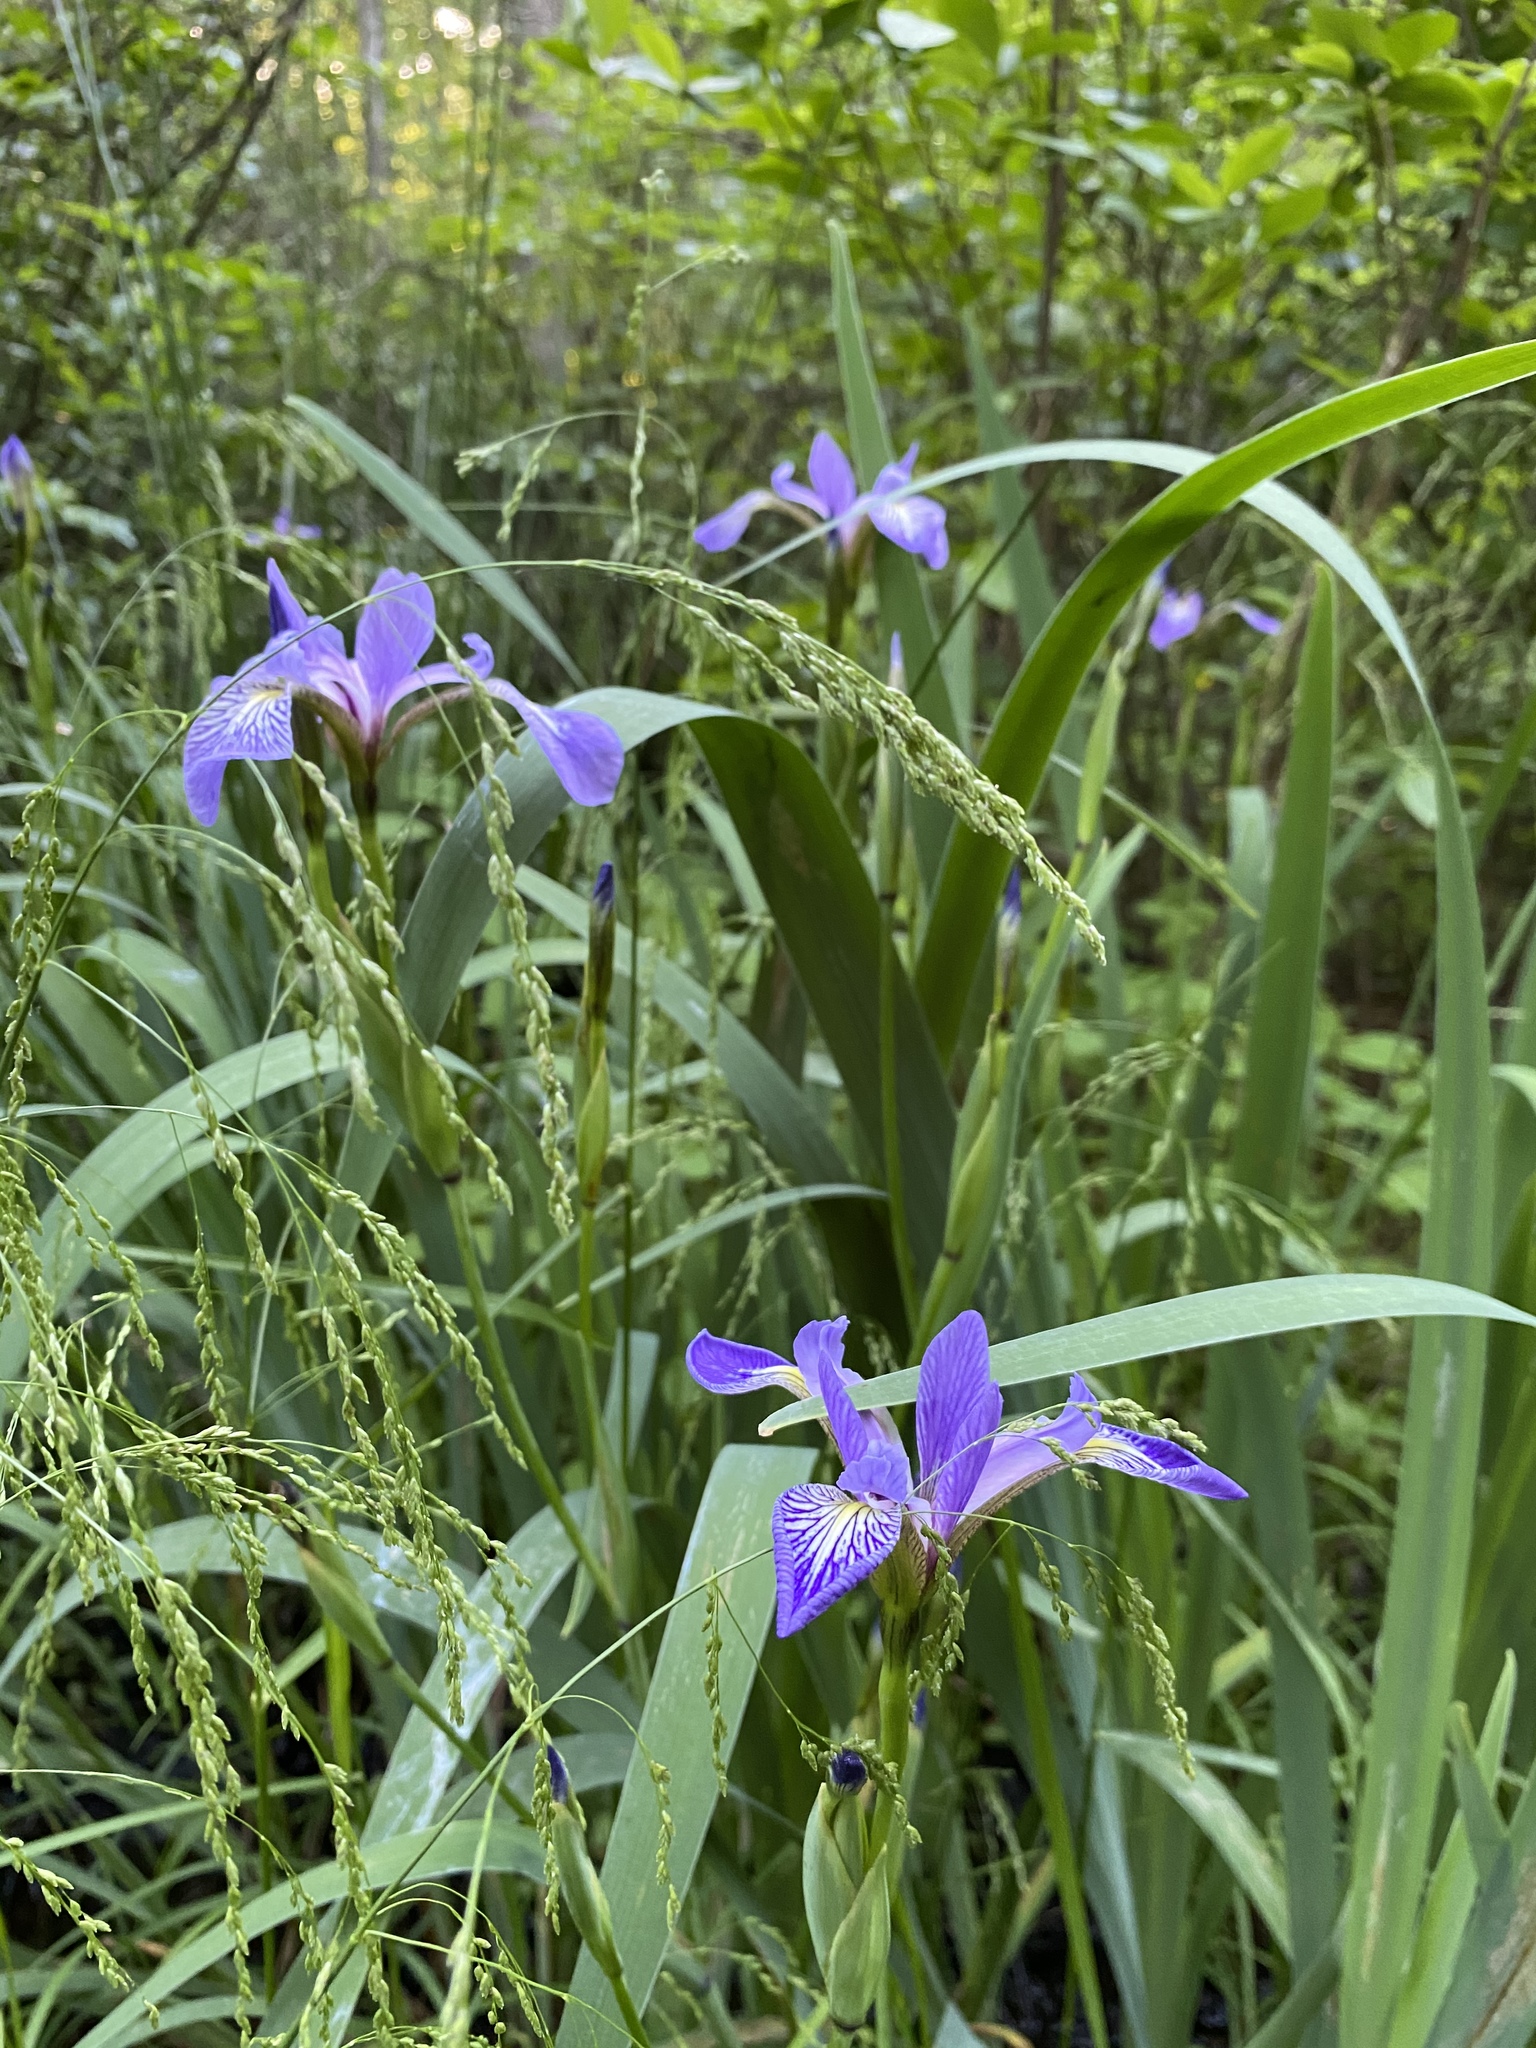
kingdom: Plantae
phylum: Tracheophyta
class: Liliopsida
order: Poales
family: Poaceae
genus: Glyceria
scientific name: Glyceria striata
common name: Fowl manna grass
